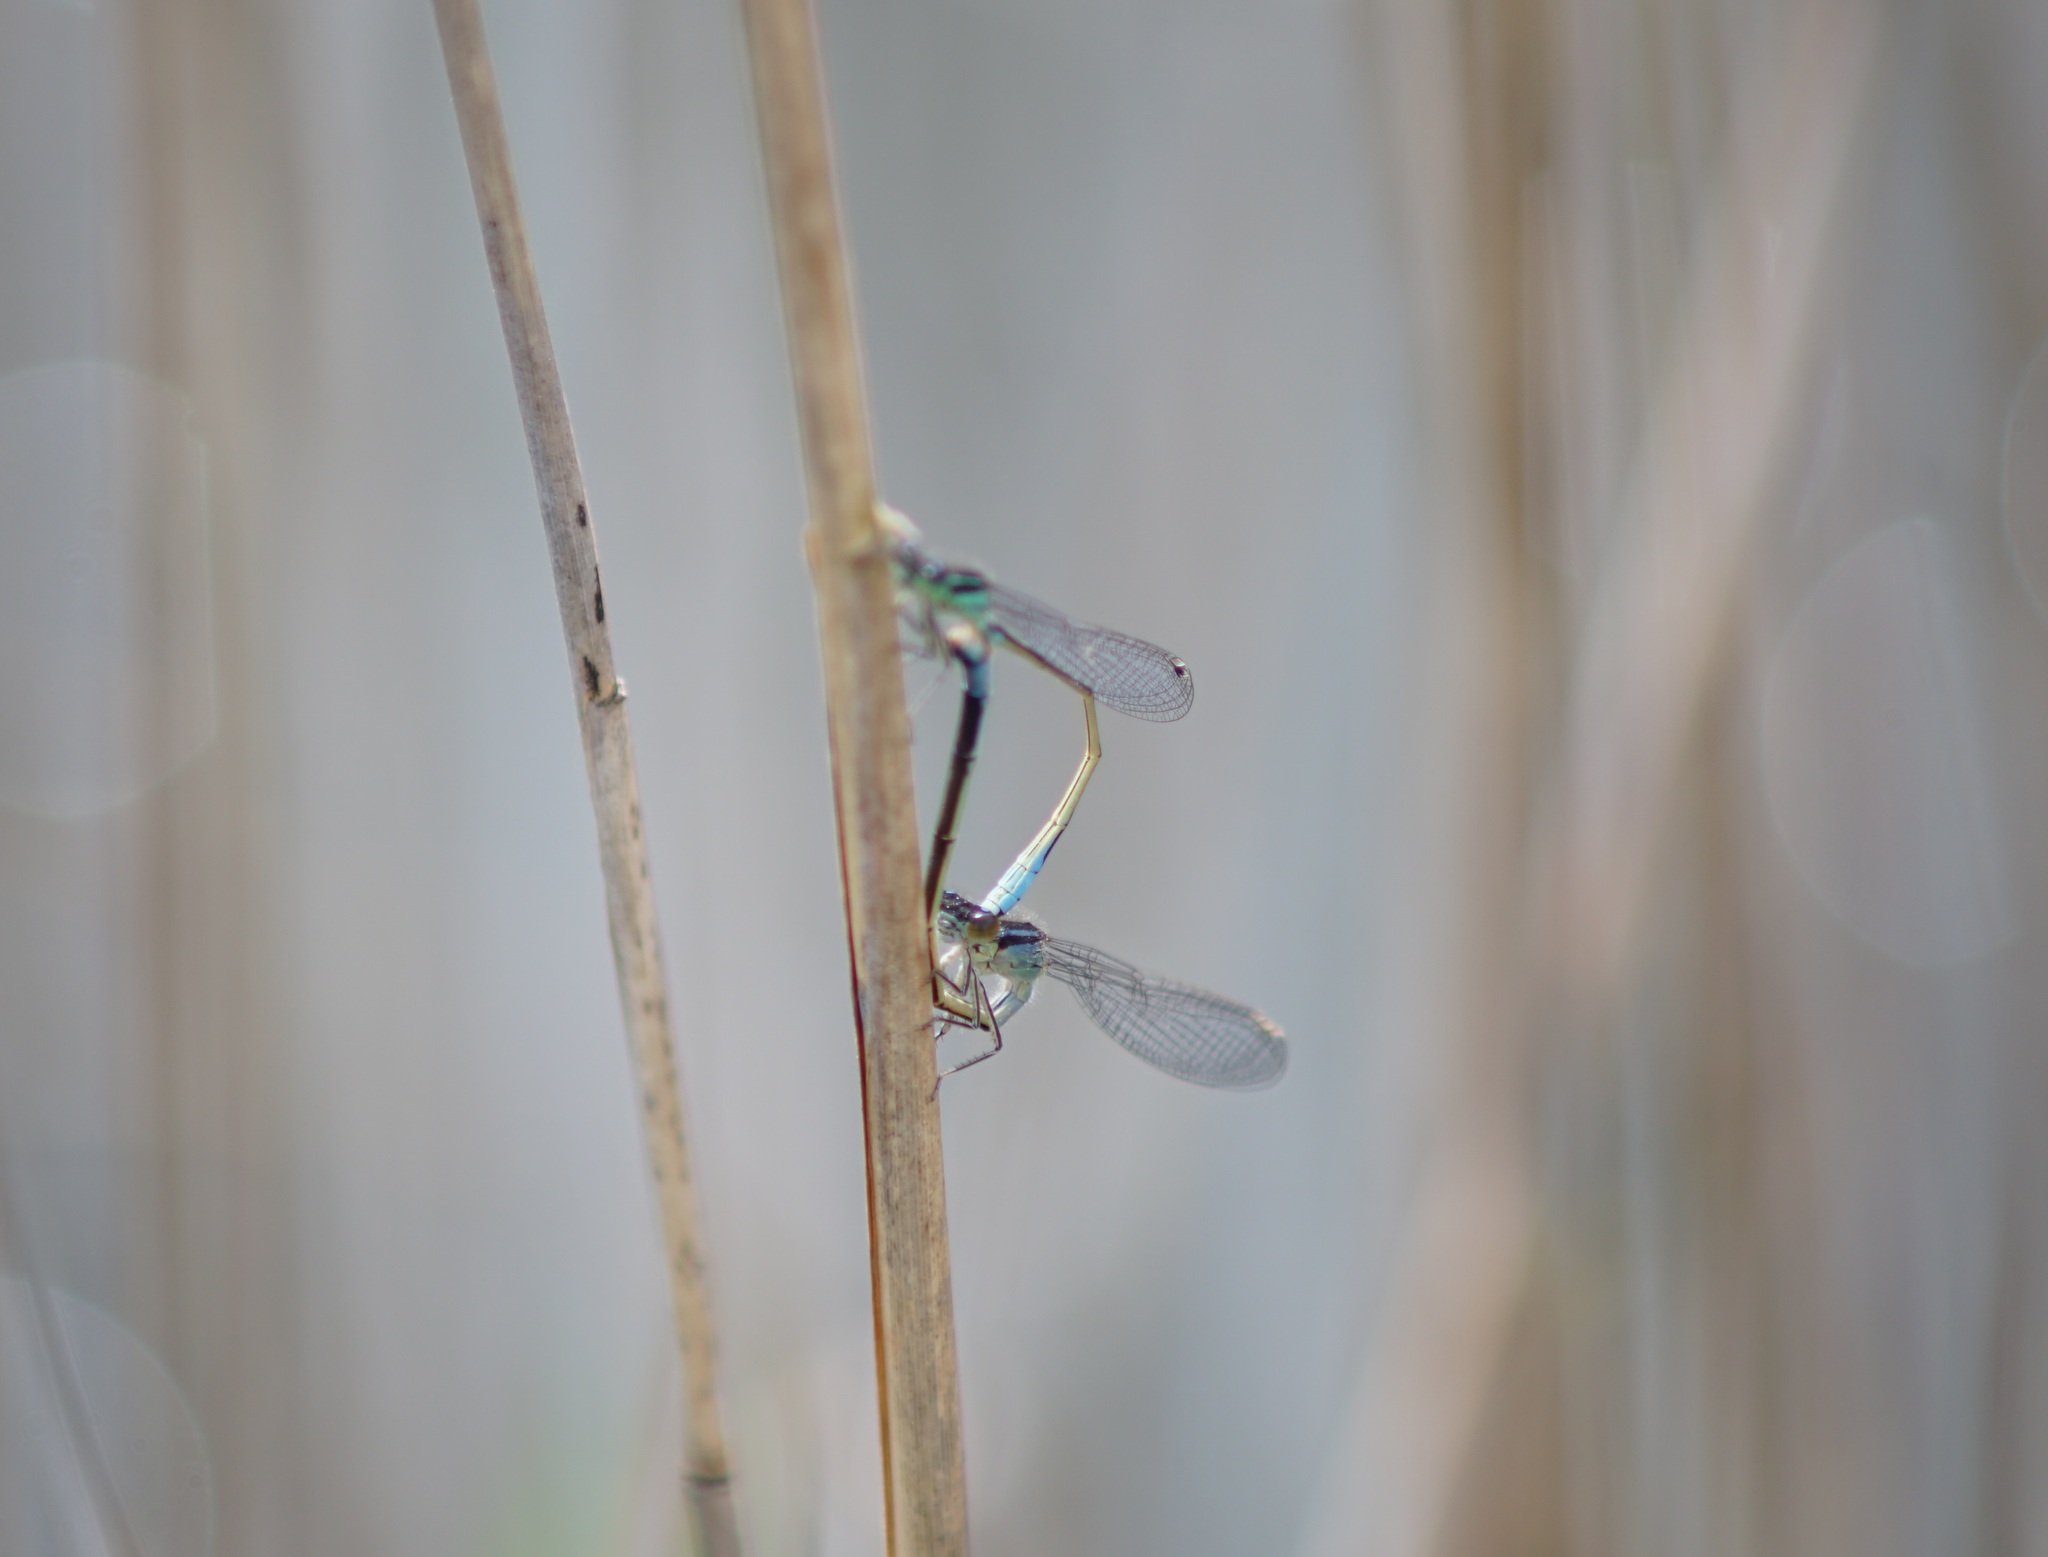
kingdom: Animalia
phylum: Arthropoda
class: Insecta
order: Odonata
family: Coenagrionidae
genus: Ischnura
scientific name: Ischnura elegans
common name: Blue-tailed damselfly
